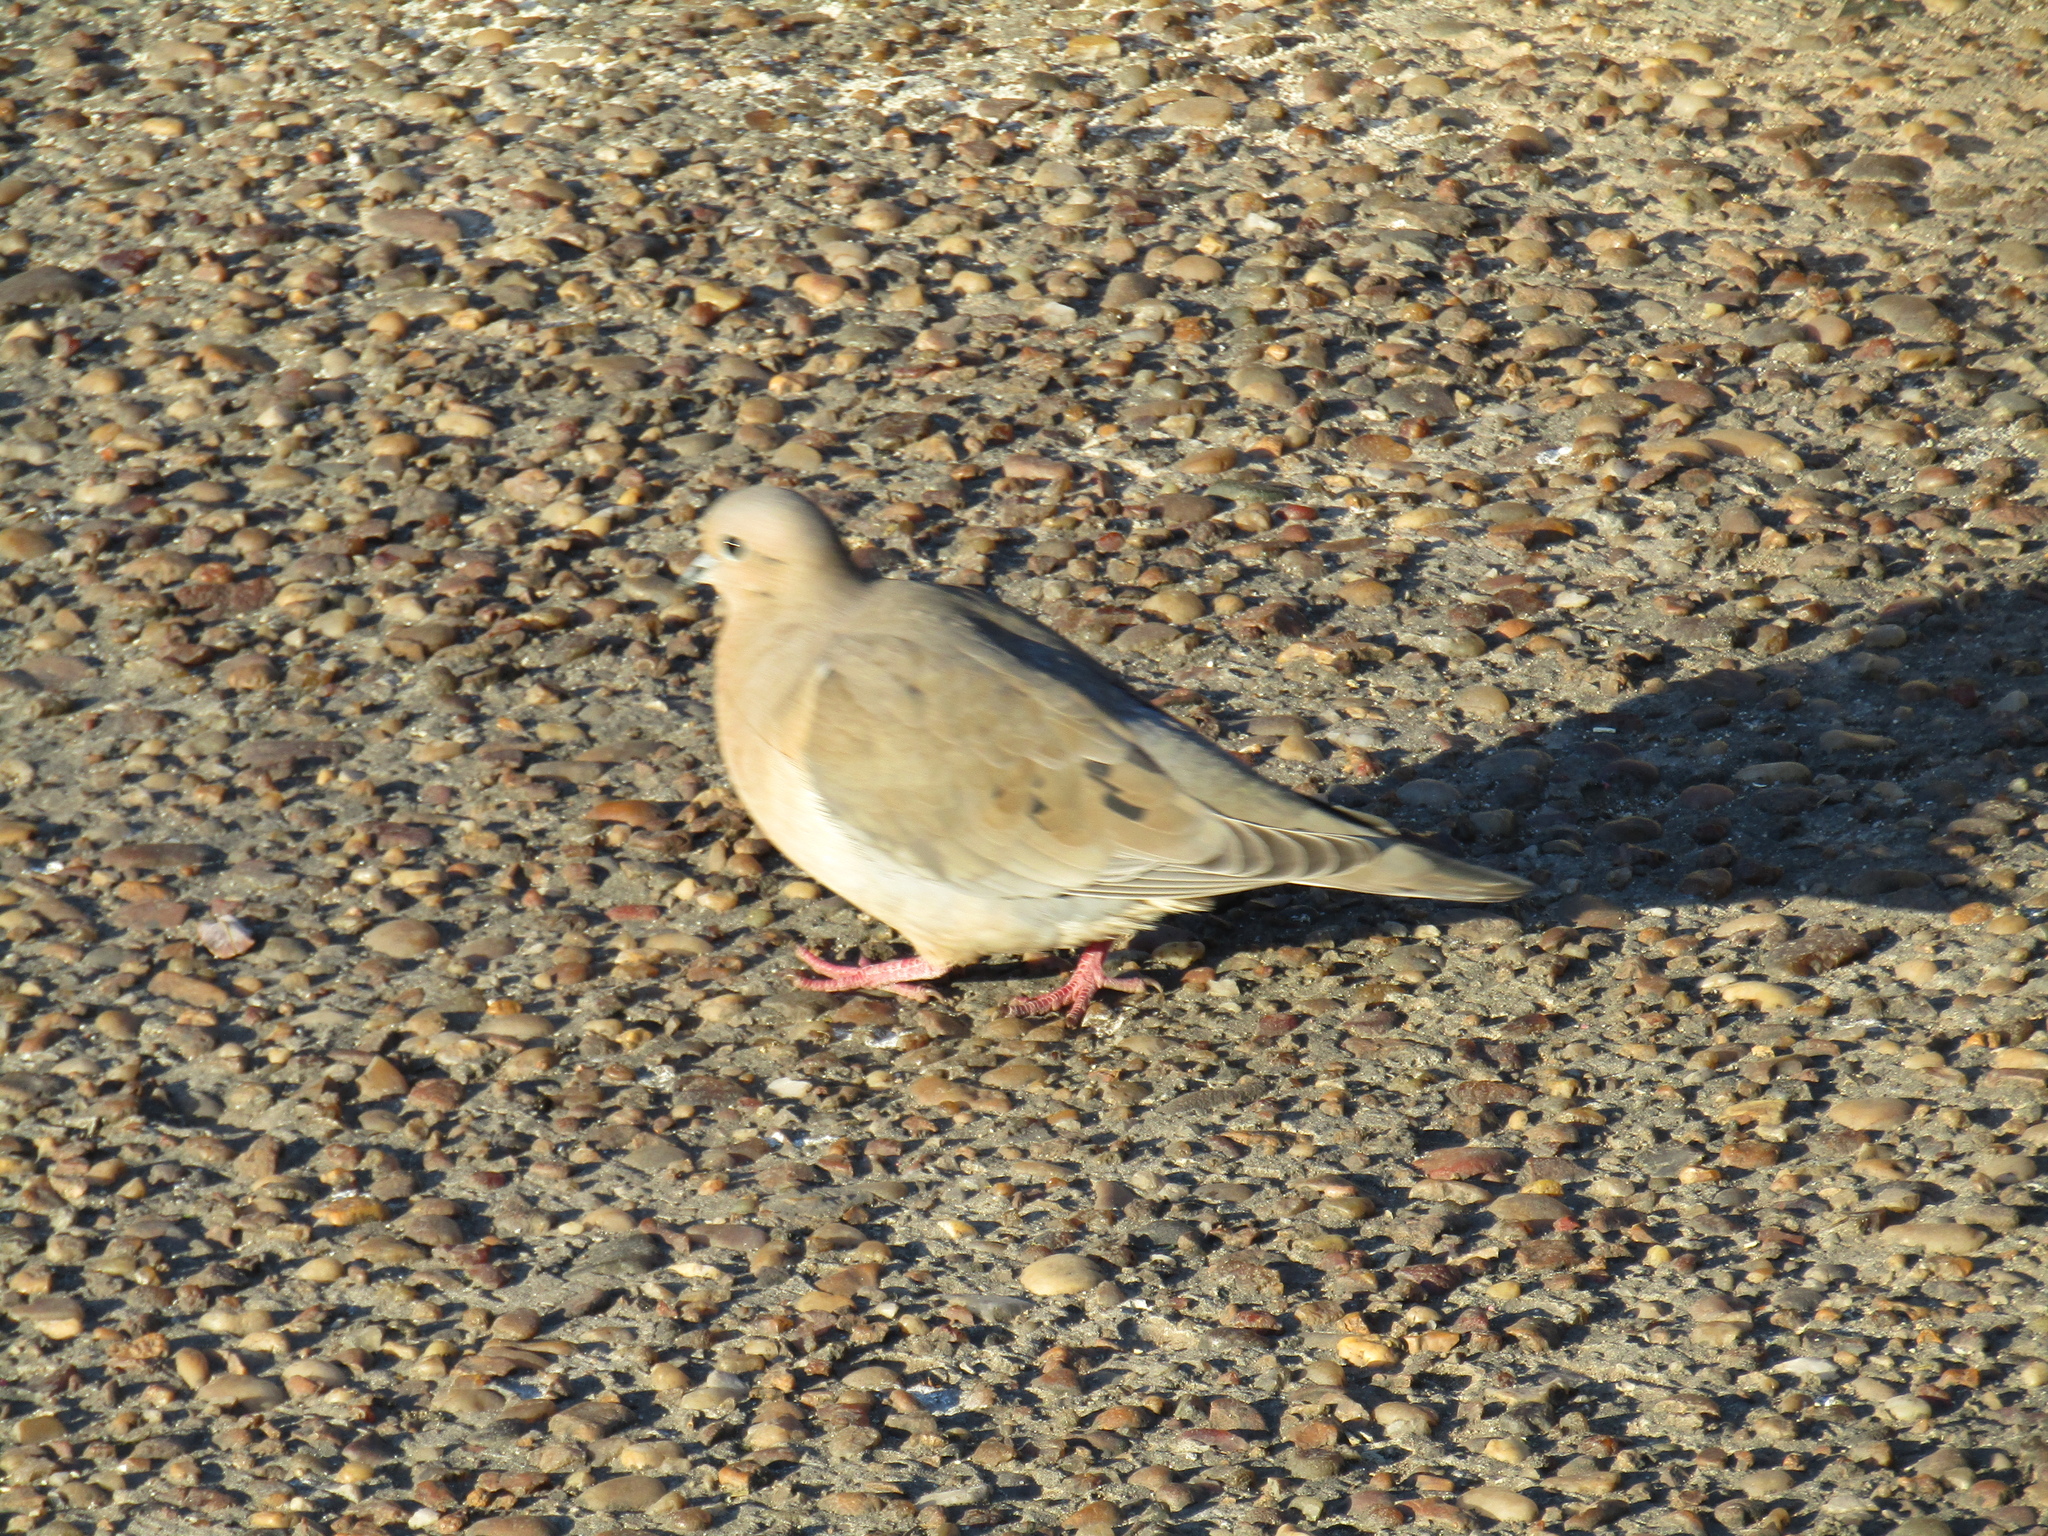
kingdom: Animalia
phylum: Chordata
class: Aves
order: Columbiformes
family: Columbidae
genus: Zenaida
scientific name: Zenaida auriculata
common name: Eared dove
